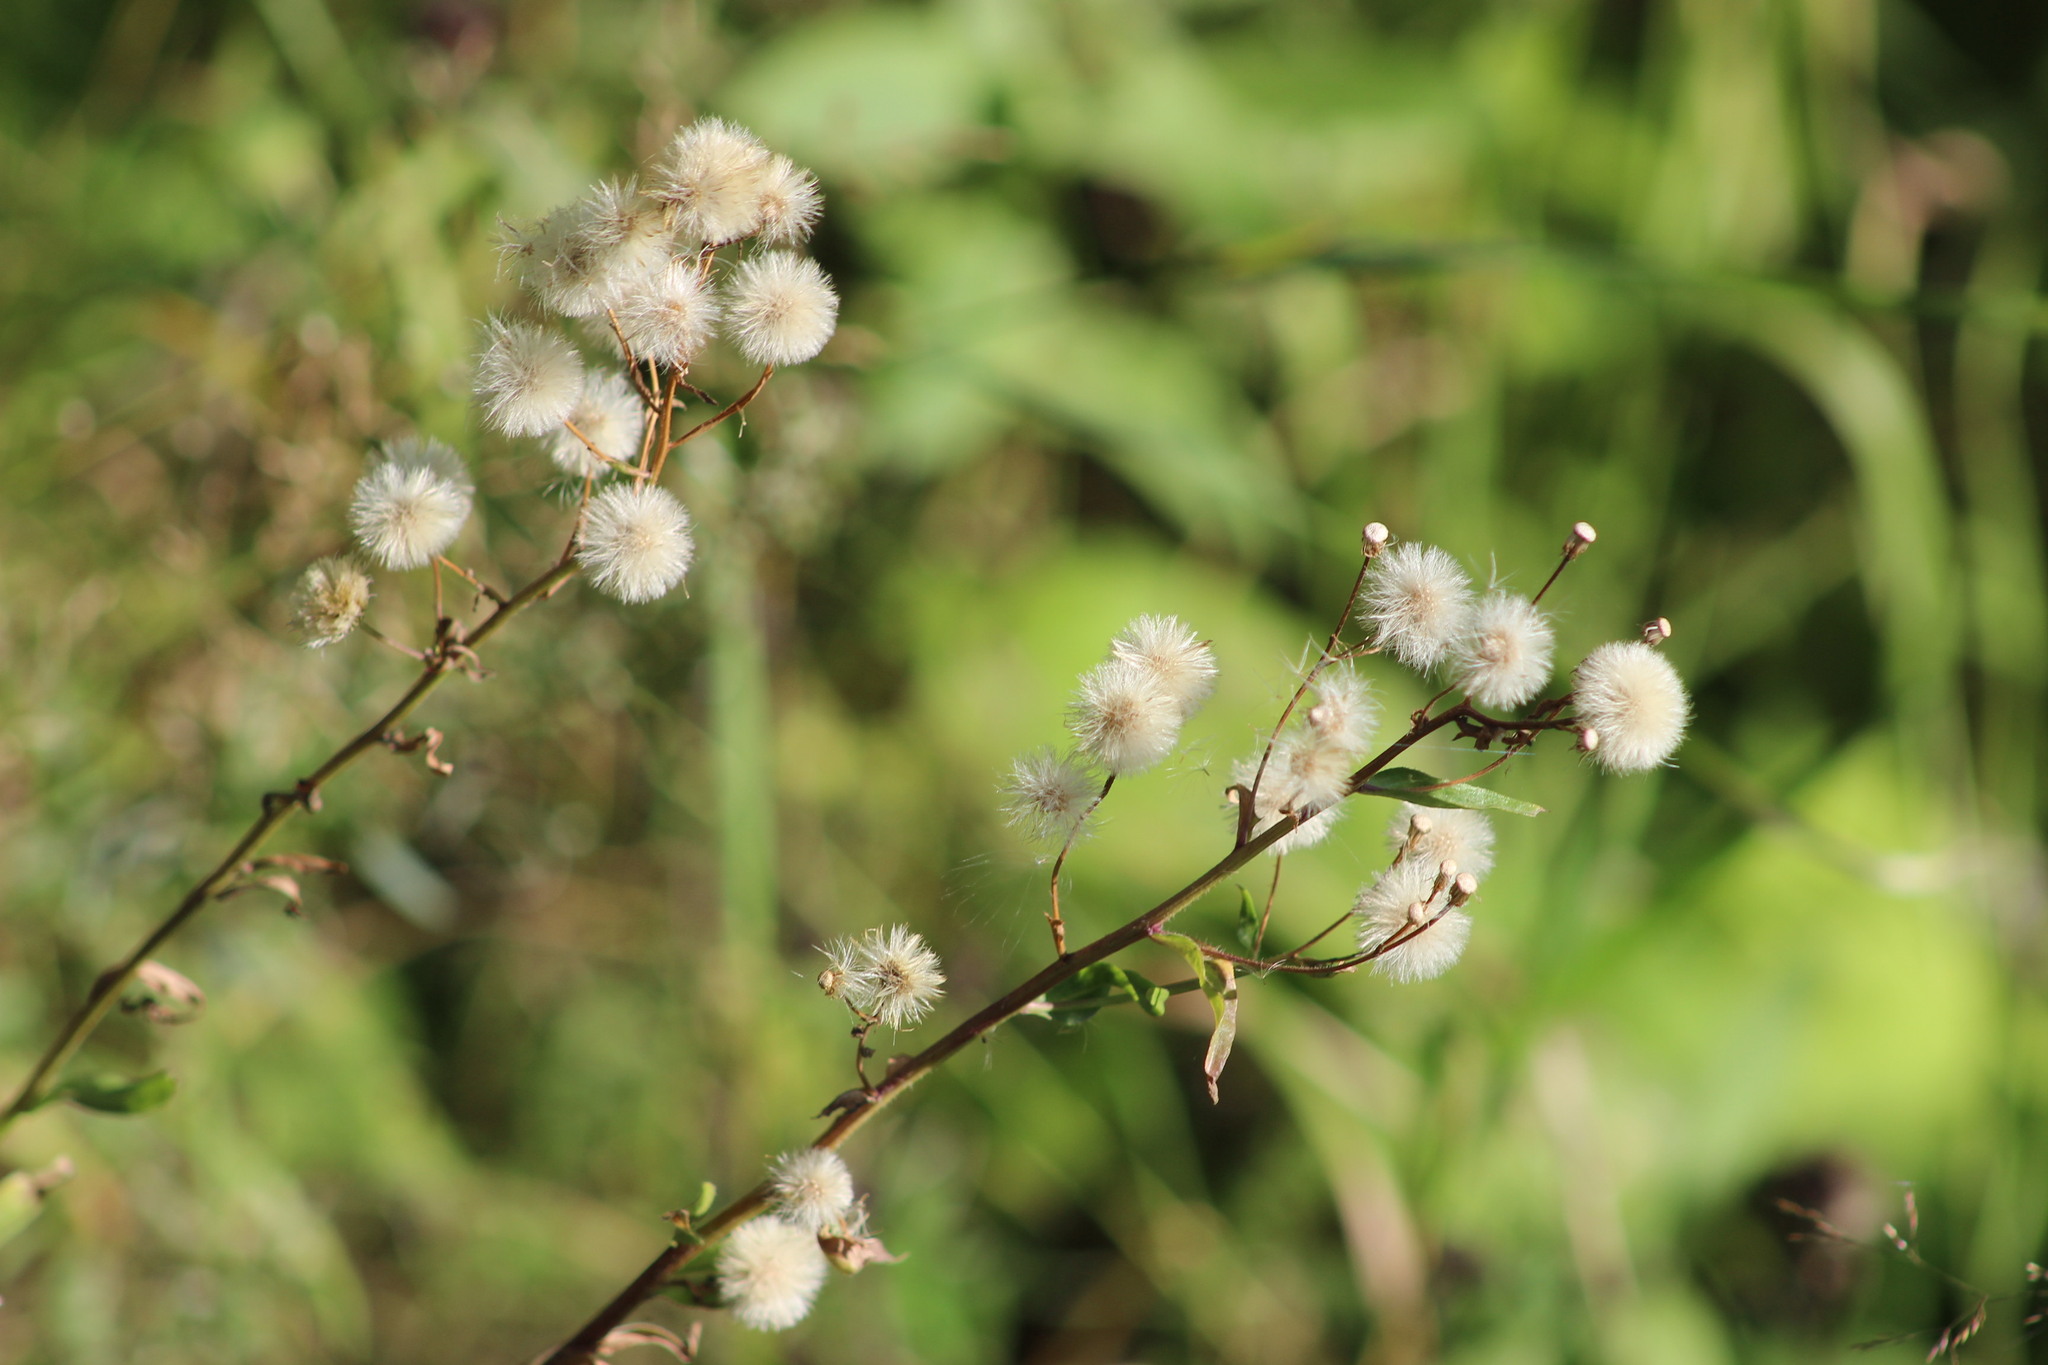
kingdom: Plantae
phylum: Tracheophyta
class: Magnoliopsida
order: Asterales
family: Asteraceae
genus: Erigeron
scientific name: Erigeron acris
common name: Blue fleabane
